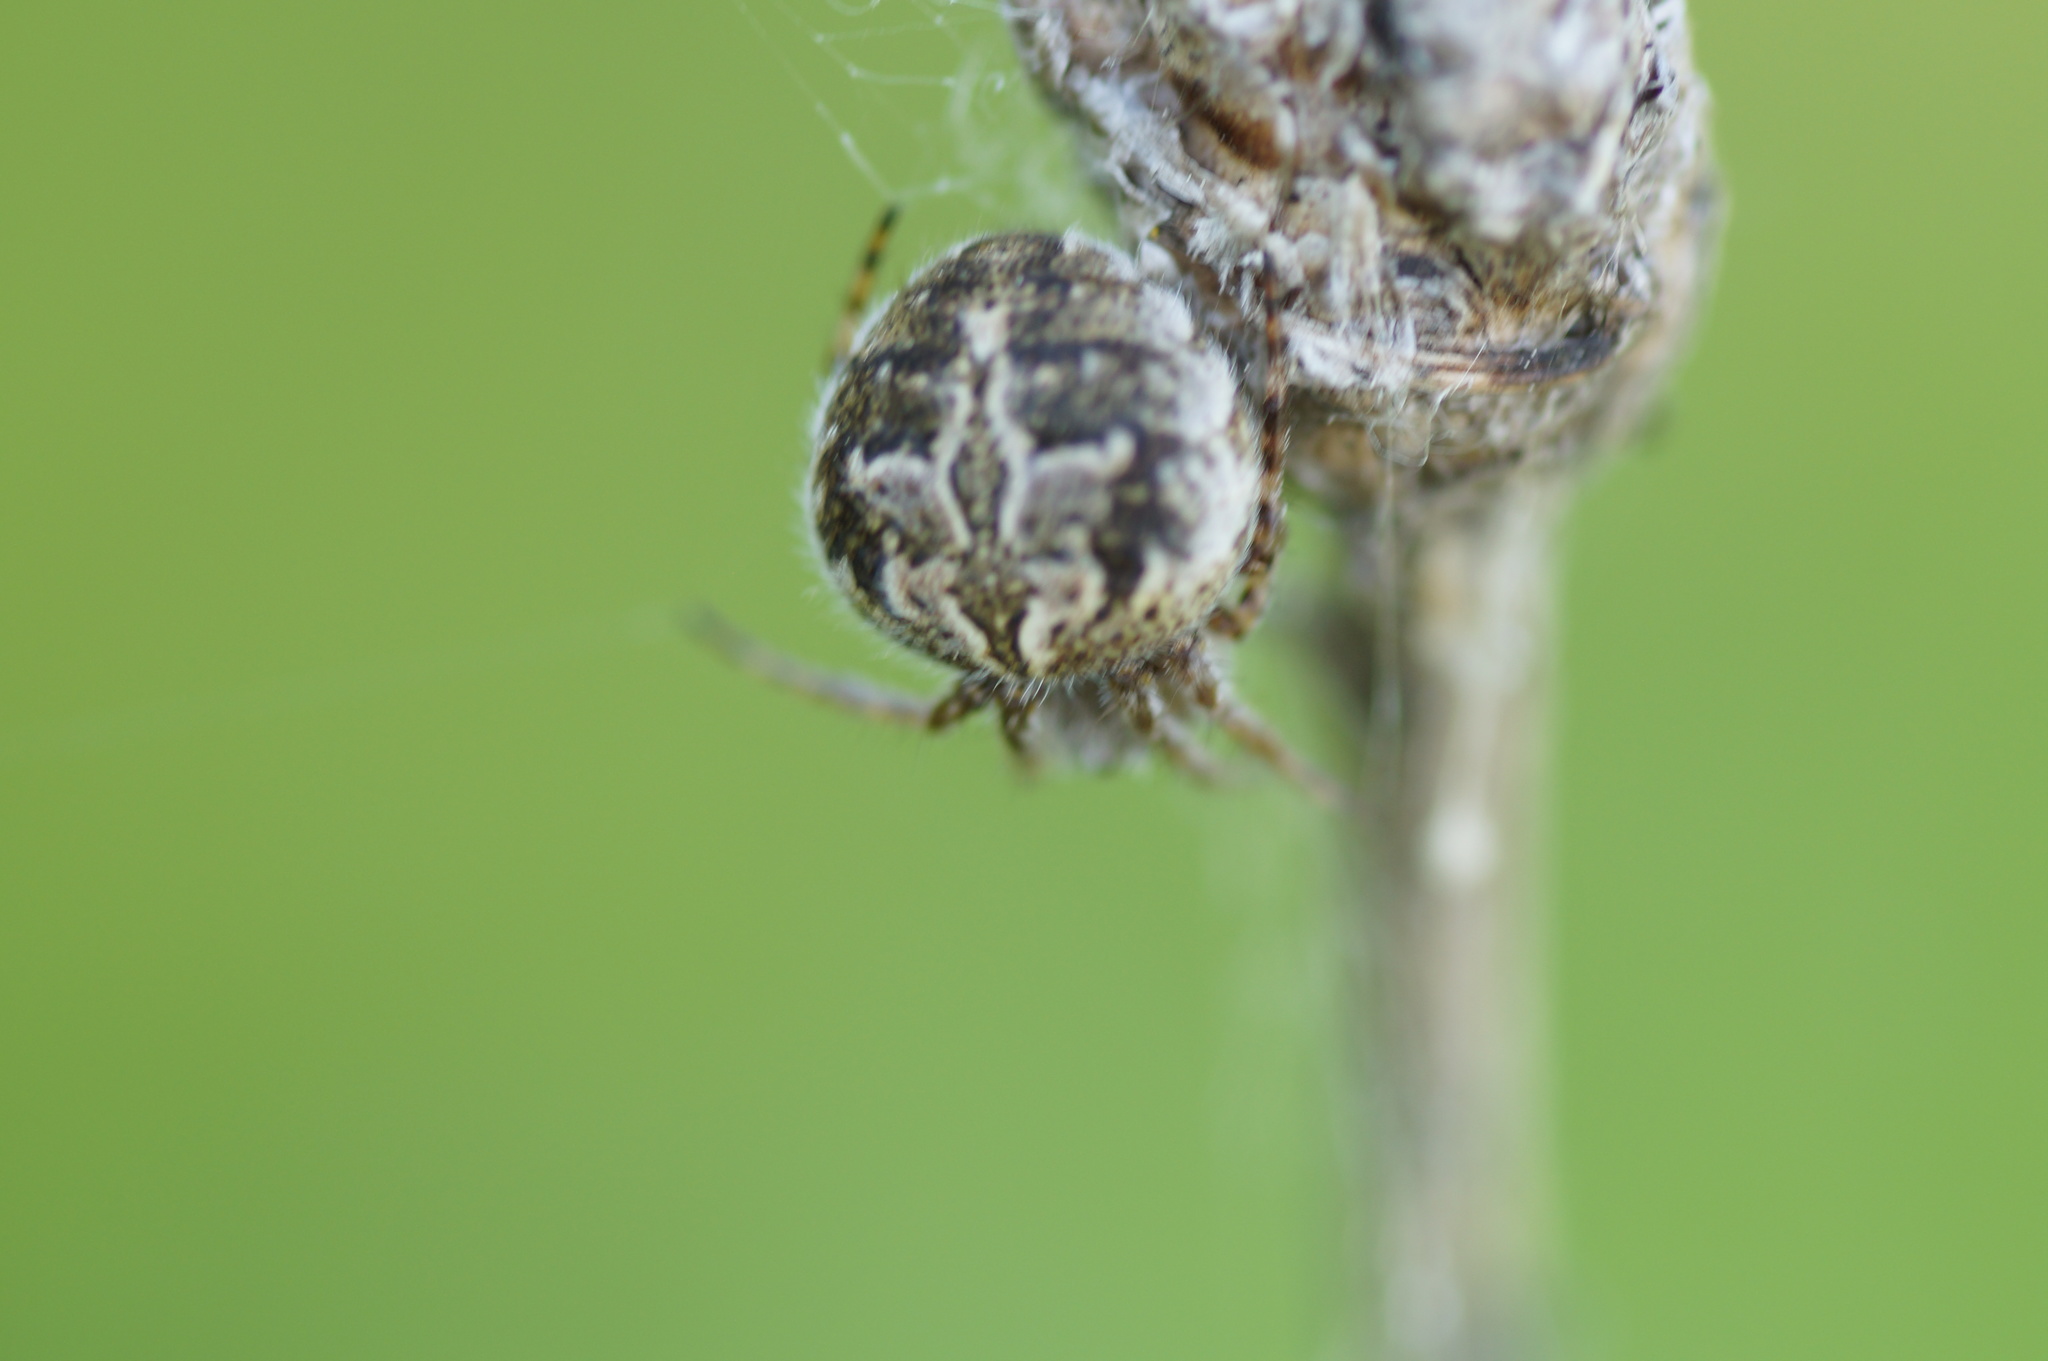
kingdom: Animalia
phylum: Arthropoda
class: Arachnida
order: Araneae
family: Araneidae
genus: Agalenatea
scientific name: Agalenatea redii
